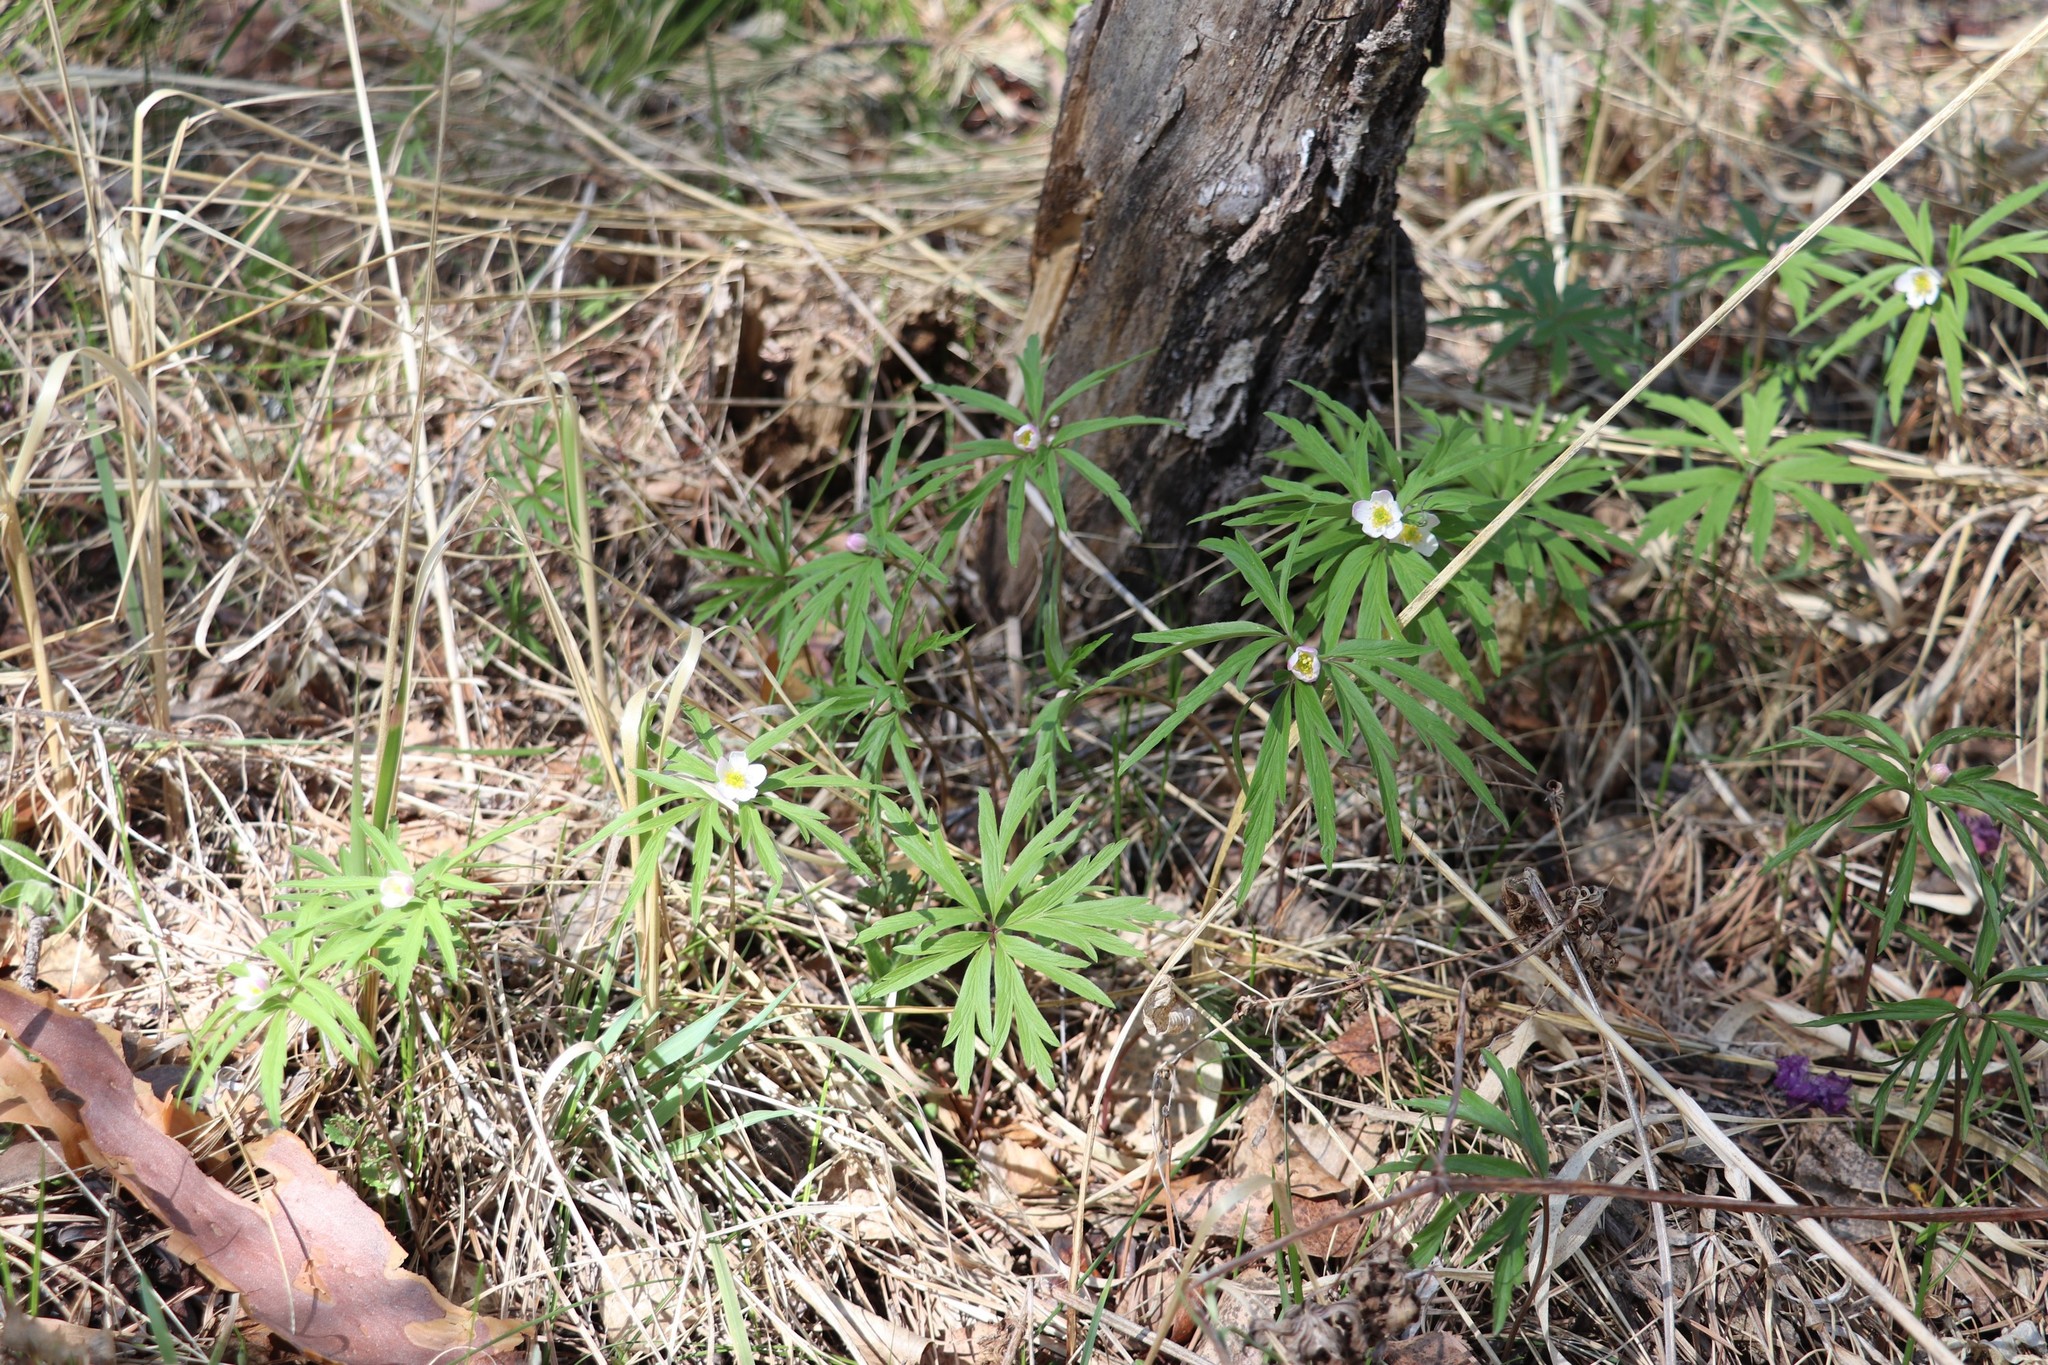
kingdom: Plantae
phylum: Tracheophyta
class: Magnoliopsida
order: Ranunculales
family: Ranunculaceae
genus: Anemone
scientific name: Anemone caerulea
